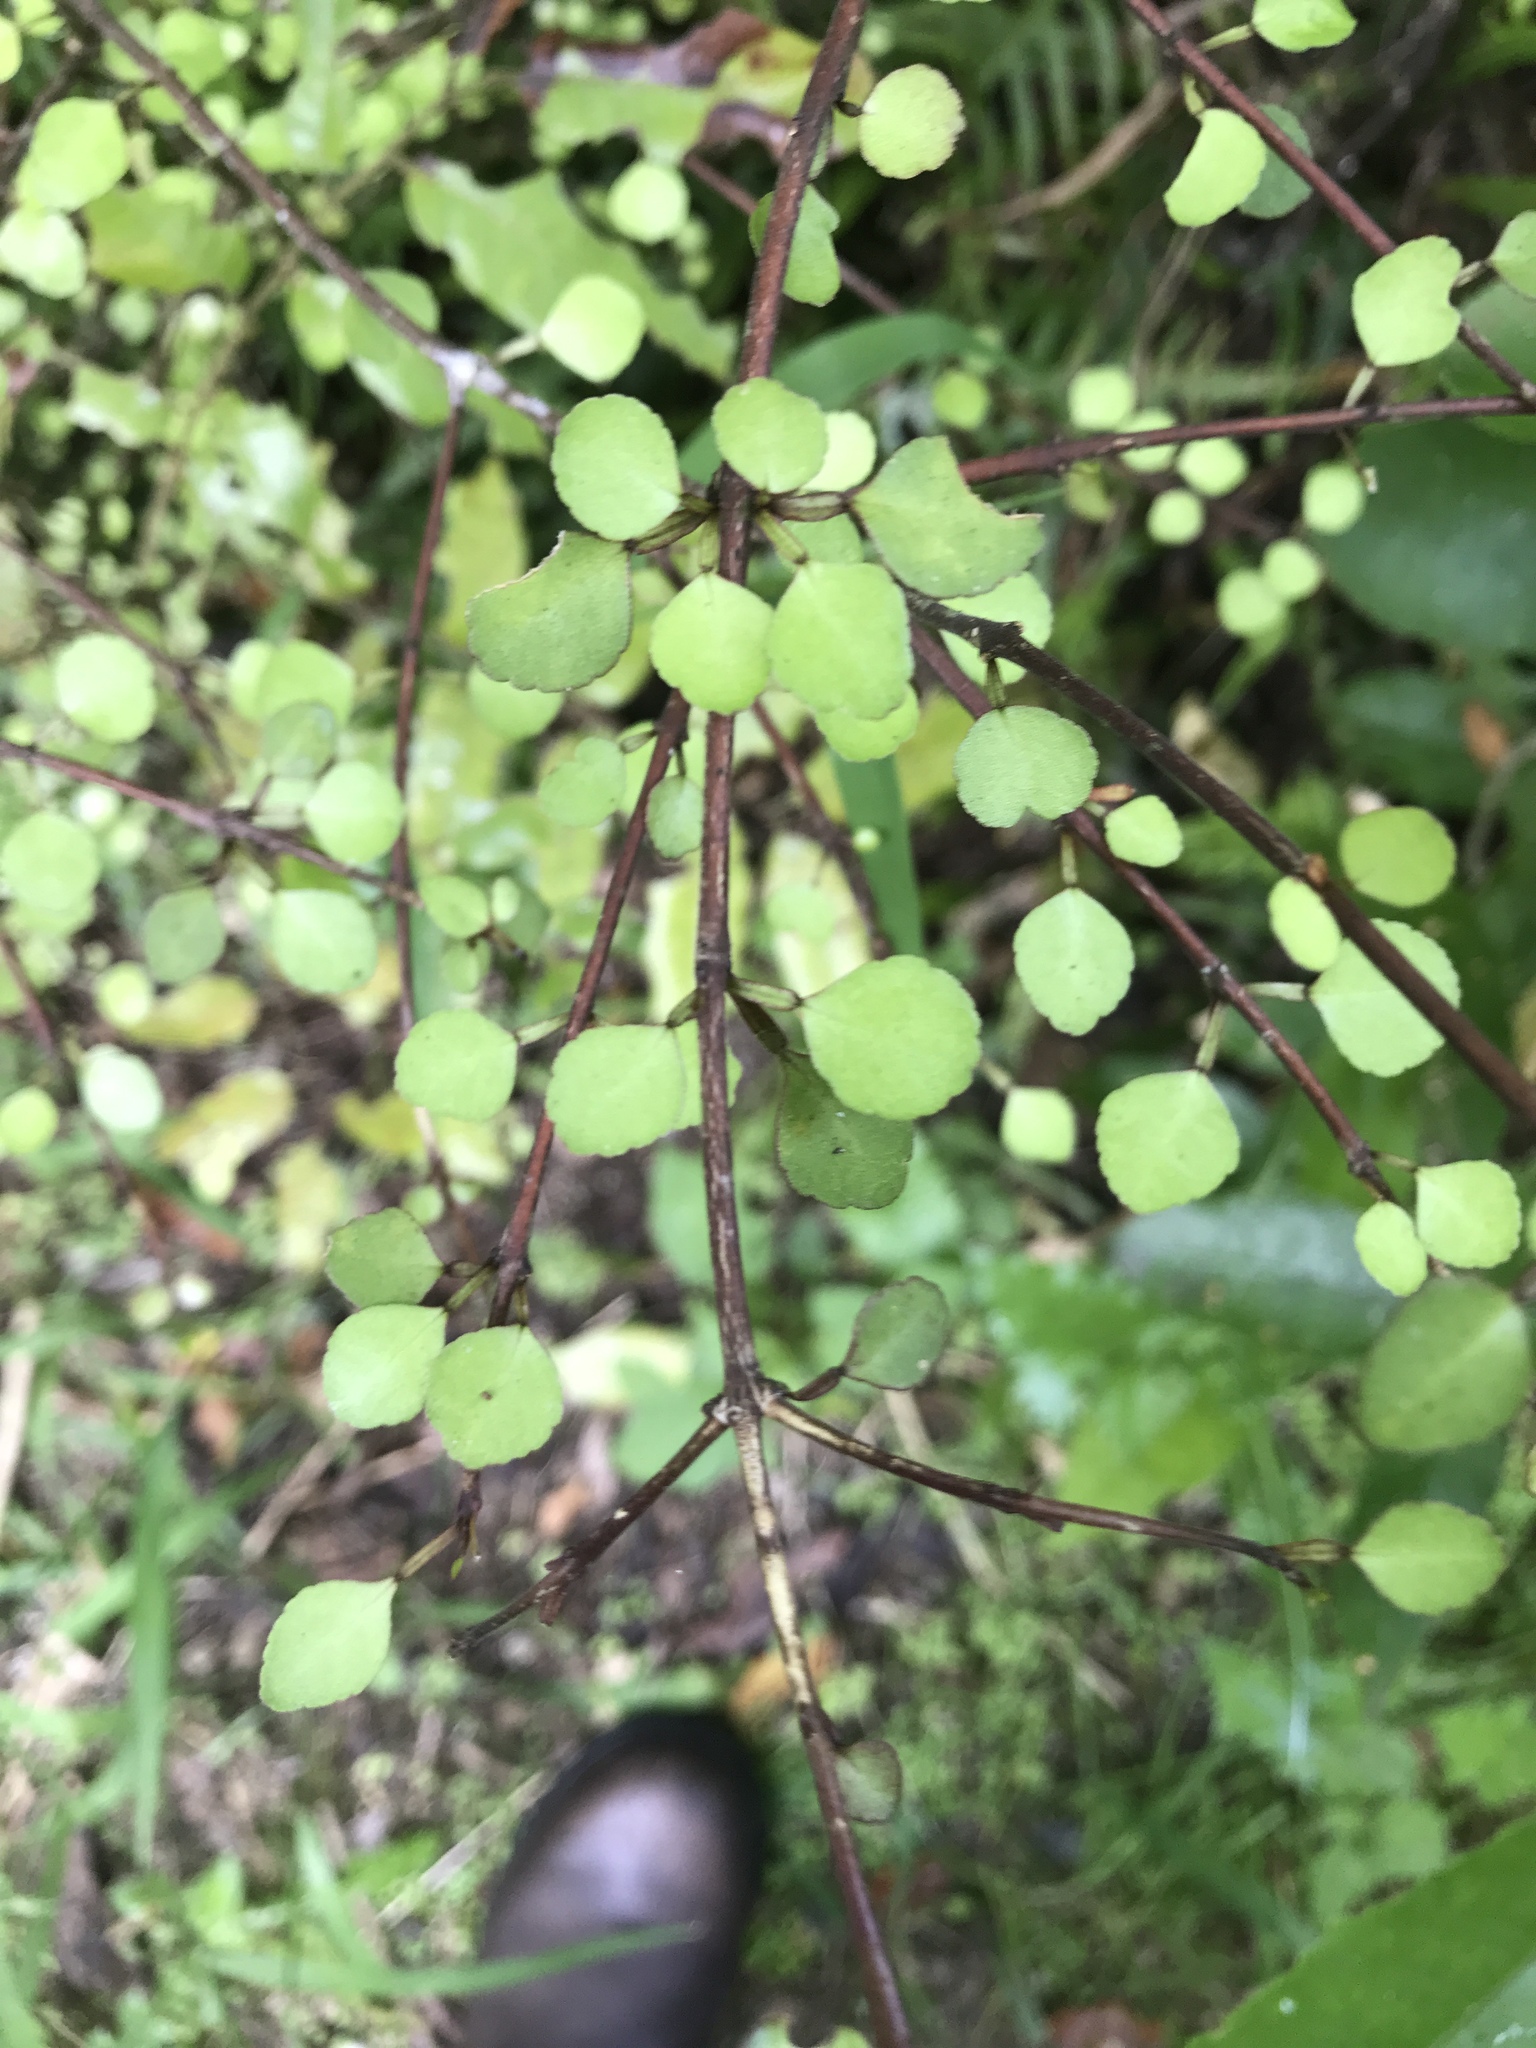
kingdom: Plantae
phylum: Tracheophyta
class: Magnoliopsida
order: Sapindales
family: Rutaceae
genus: Melicope
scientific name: Melicope simplex
